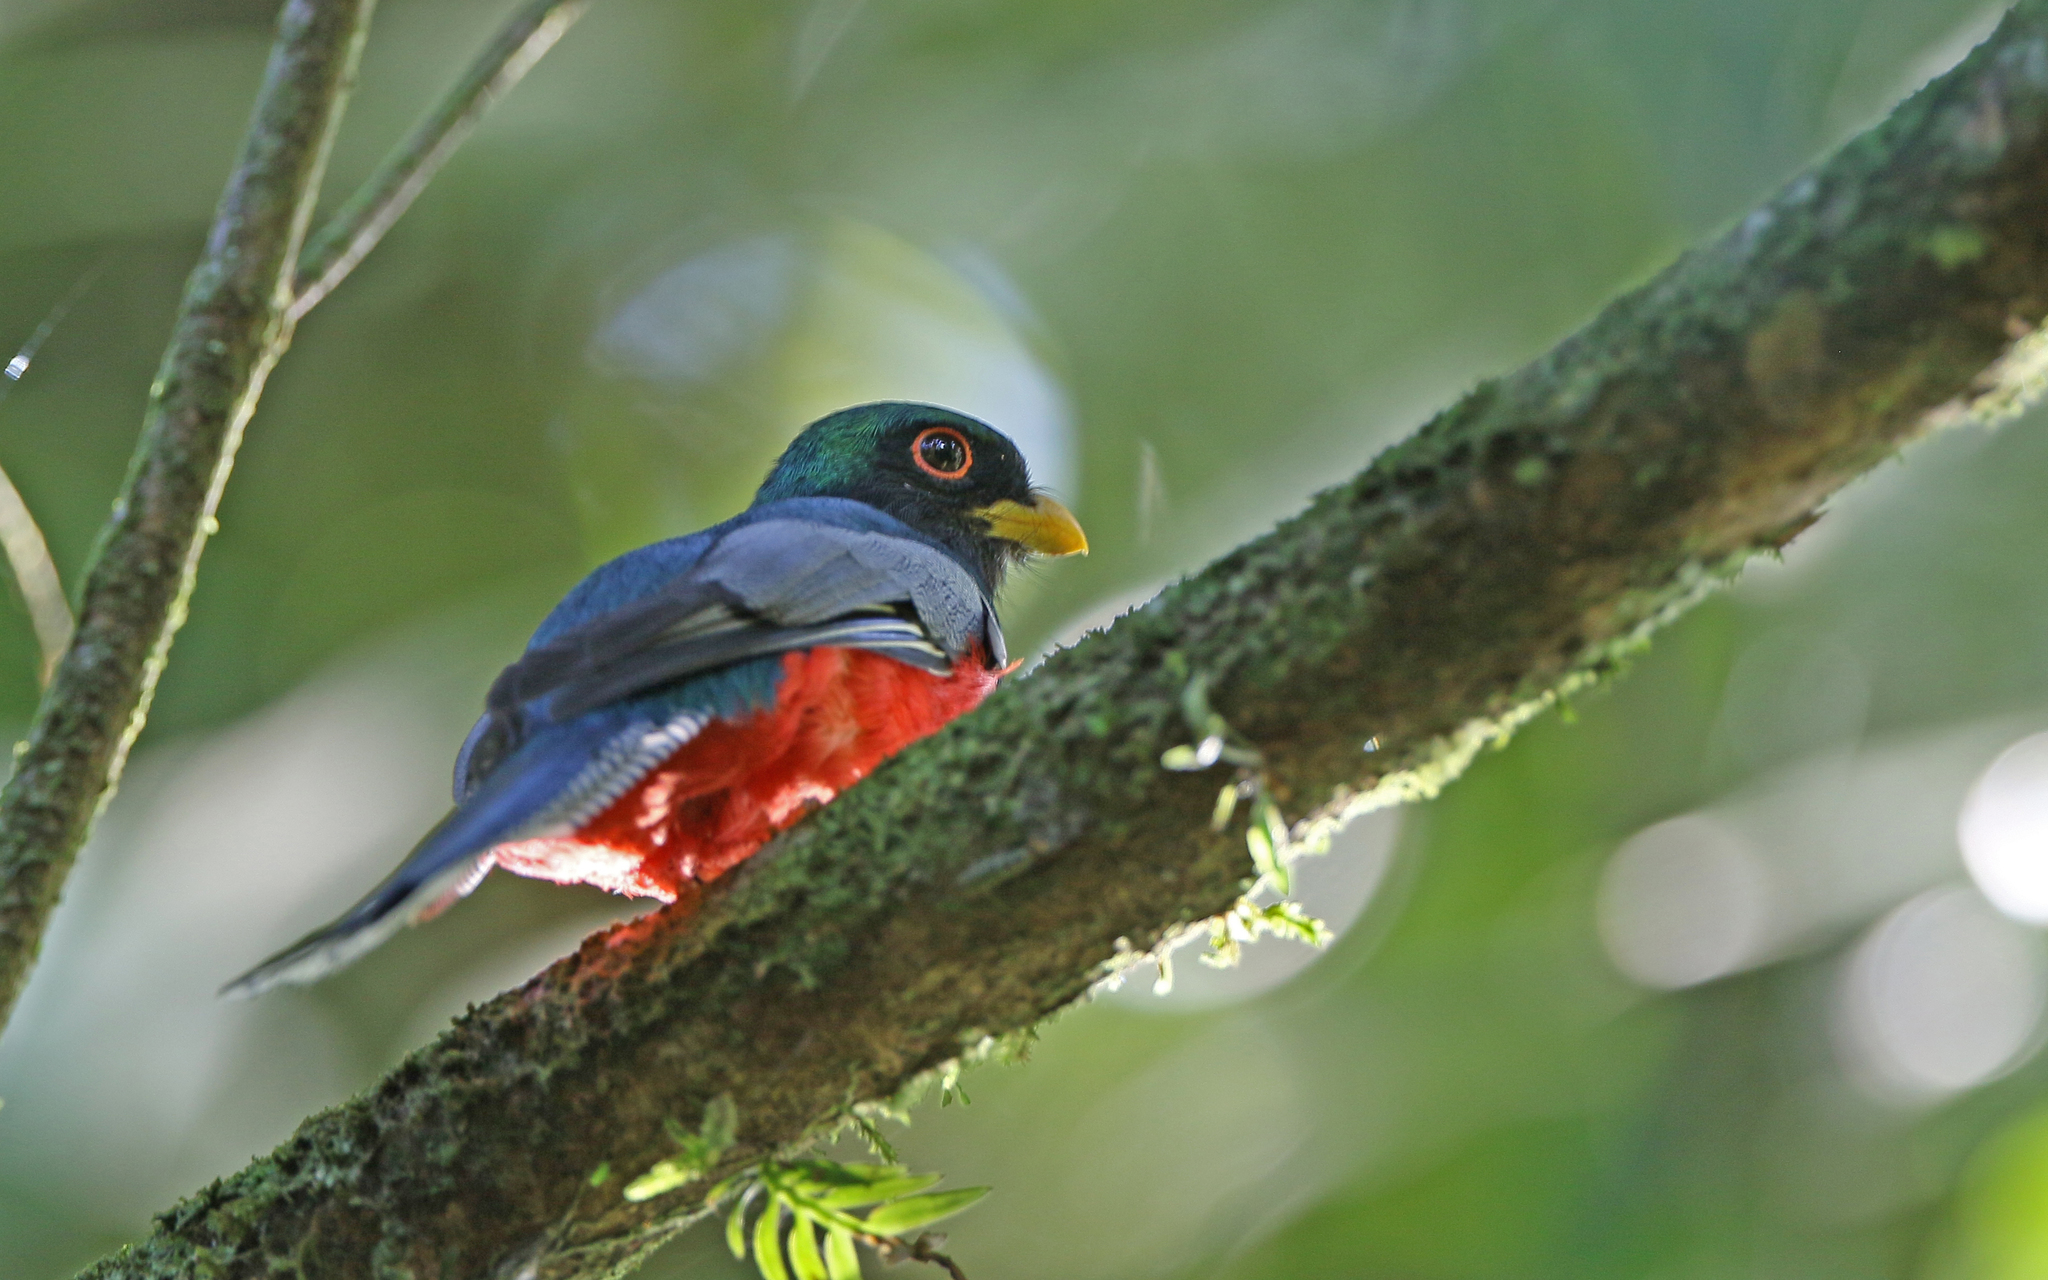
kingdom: Animalia
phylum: Chordata
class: Aves
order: Trogoniformes
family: Trogonidae
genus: Trogon
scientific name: Trogon collaris
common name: Collared trogon
